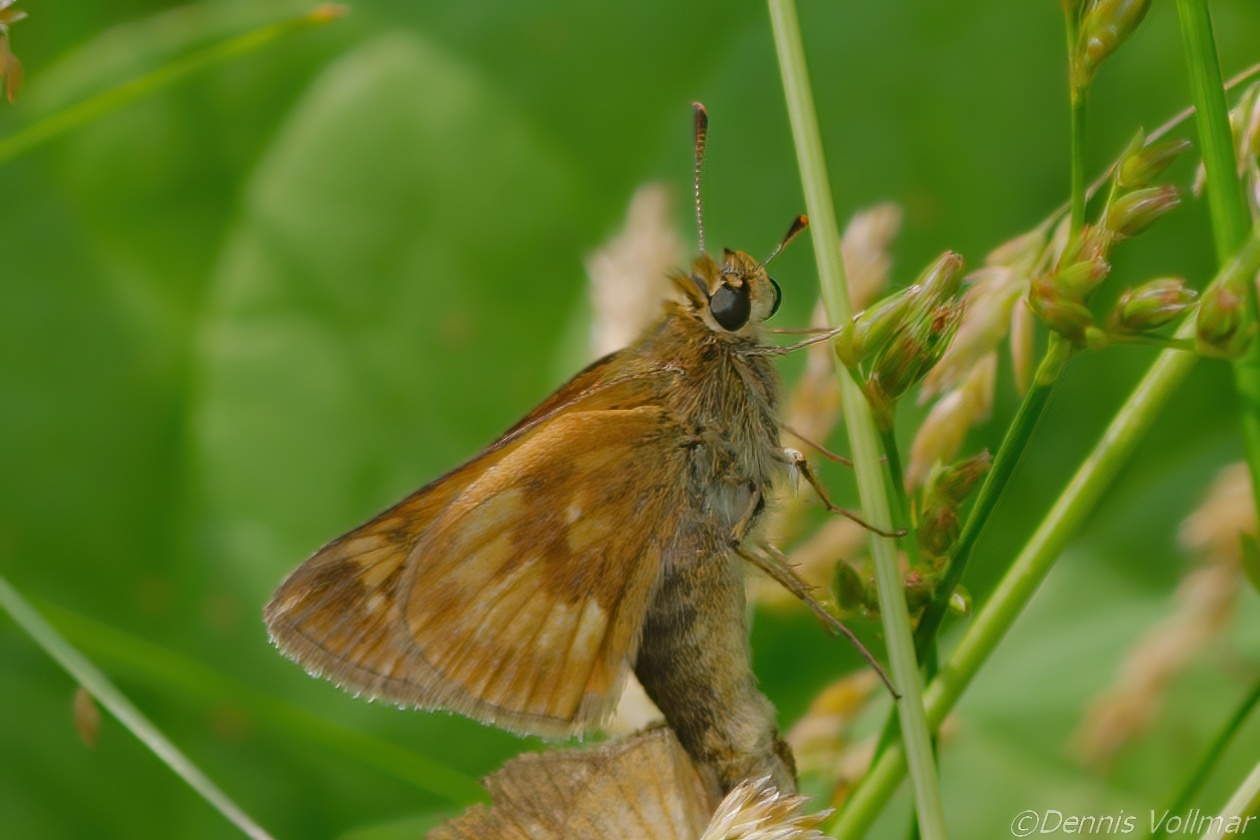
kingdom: Animalia
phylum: Arthropoda
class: Insecta
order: Lepidoptera
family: Hesperiidae
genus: Polites
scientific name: Polites mystic
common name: Long dash
